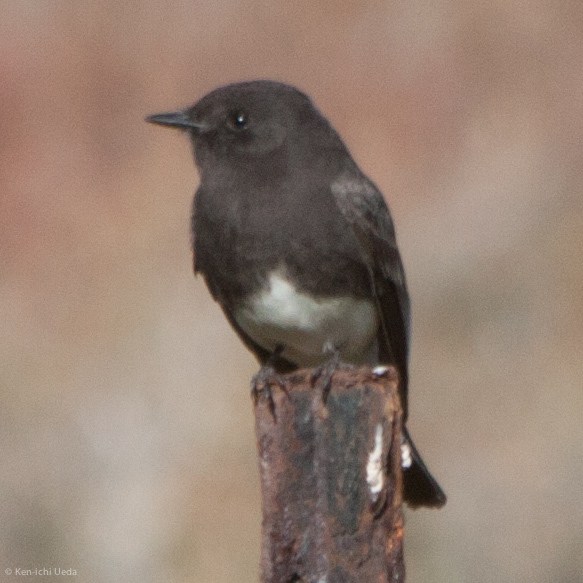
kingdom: Animalia
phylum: Chordata
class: Aves
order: Passeriformes
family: Tyrannidae
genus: Sayornis
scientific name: Sayornis nigricans
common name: Black phoebe
